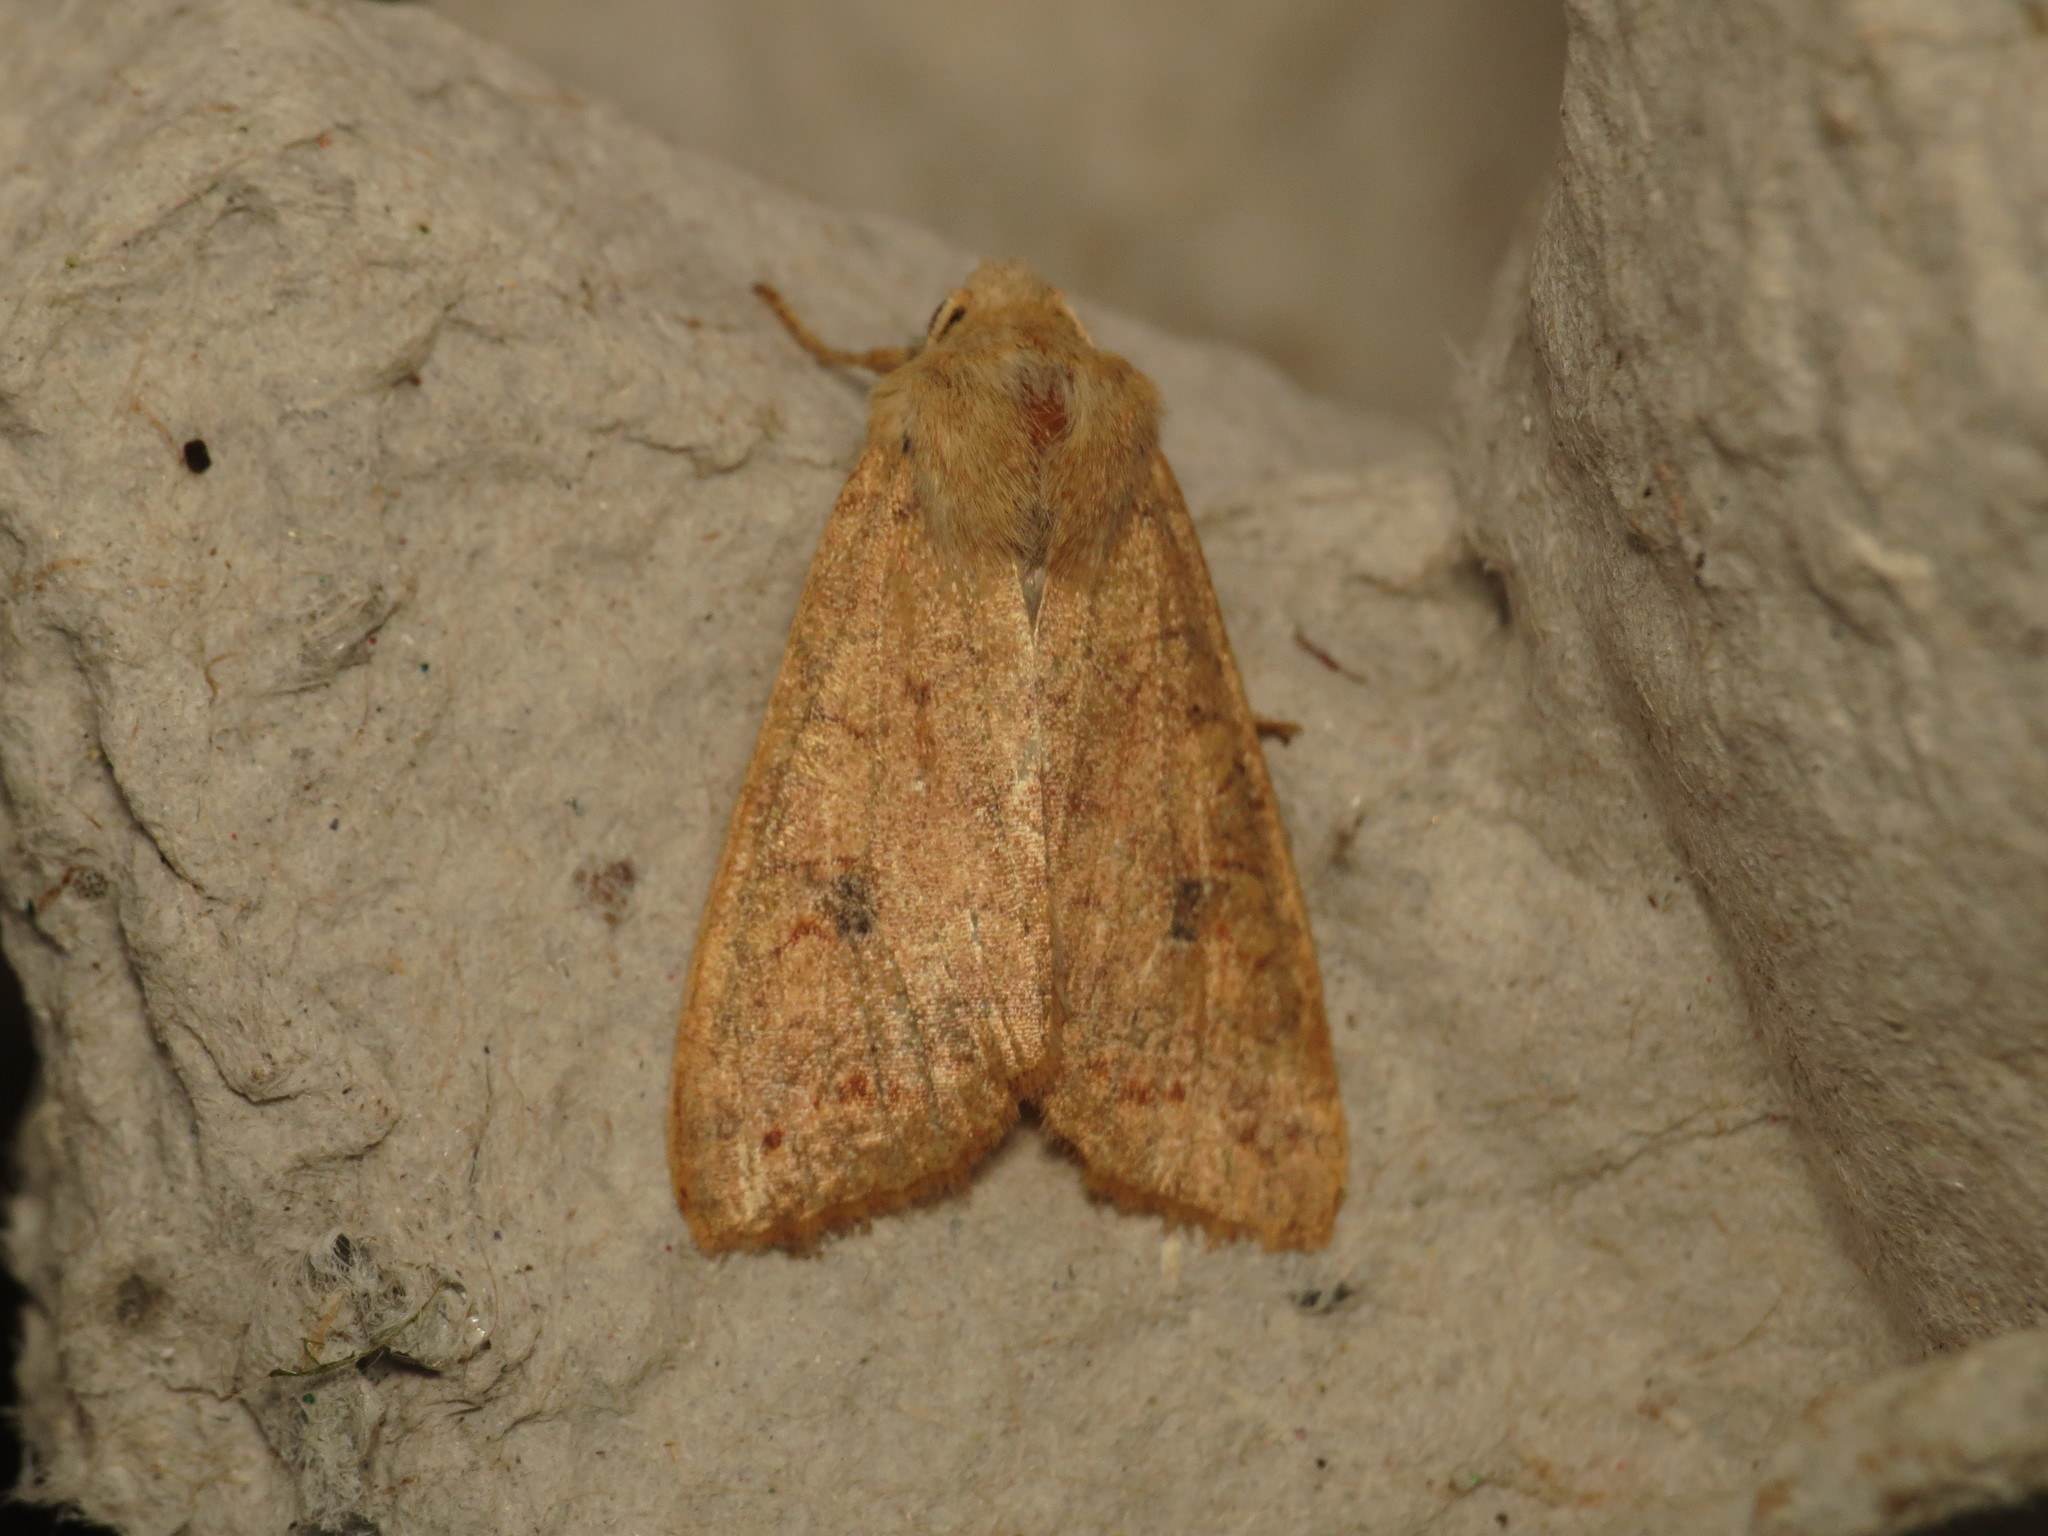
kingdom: Animalia
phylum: Arthropoda
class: Insecta
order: Lepidoptera
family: Noctuidae
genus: Sunira
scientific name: Sunira circellaris
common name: Brick
